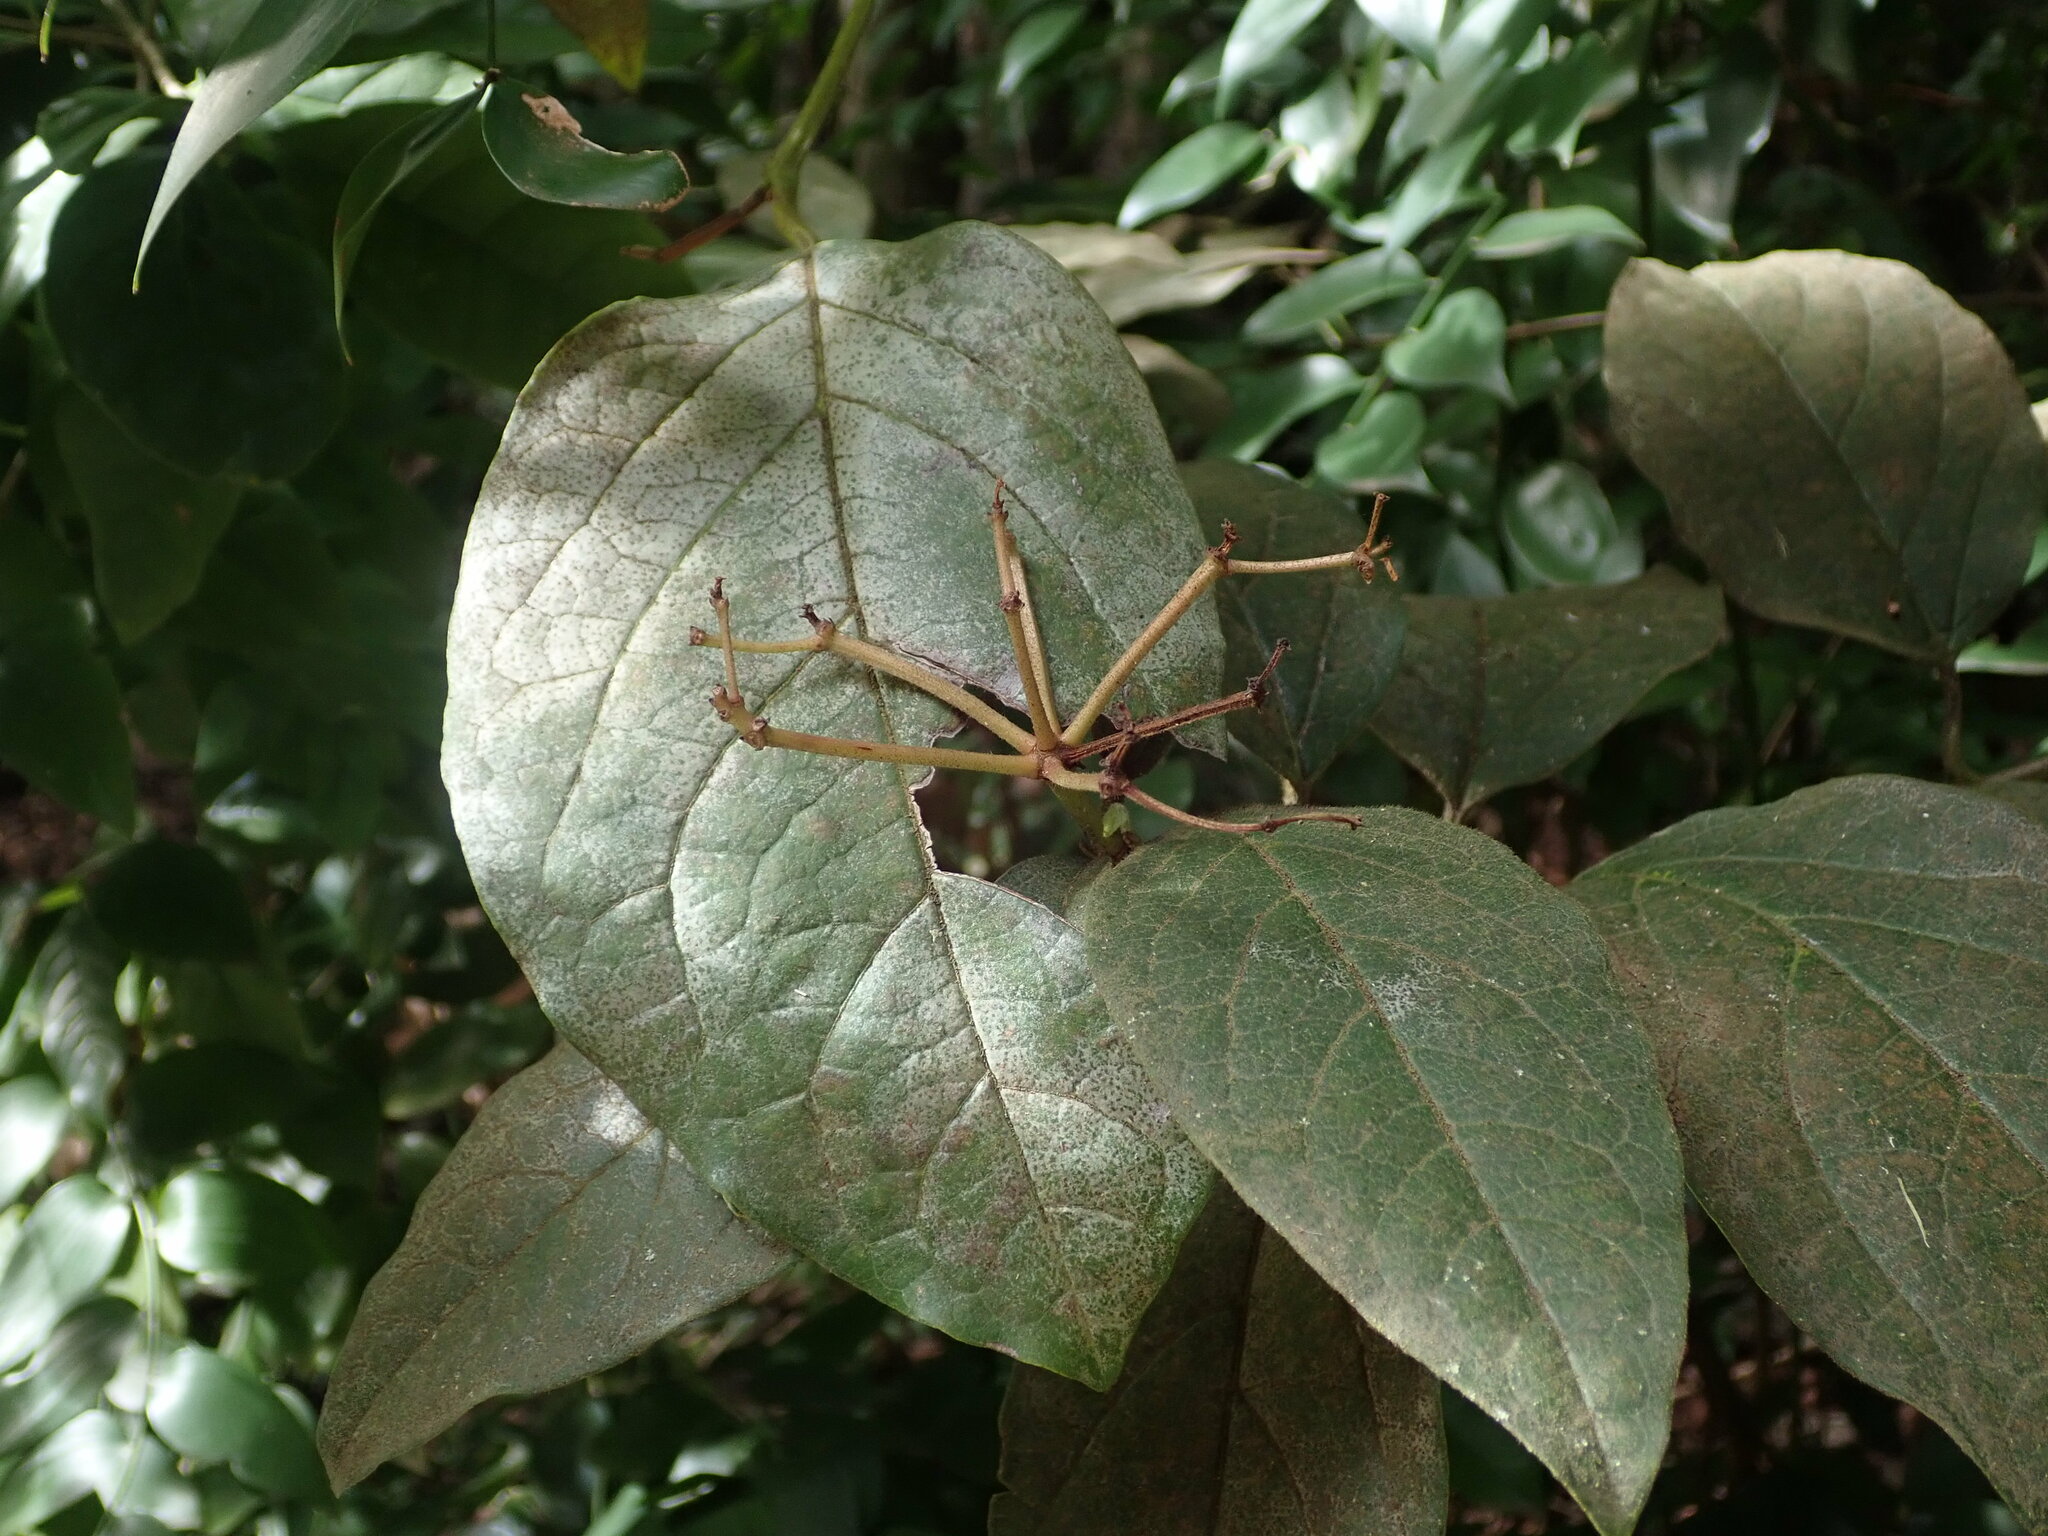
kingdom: Plantae
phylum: Tracheophyta
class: Magnoliopsida
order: Dipsacales
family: Viburnaceae
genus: Viburnum
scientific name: Viburnum rugosum
